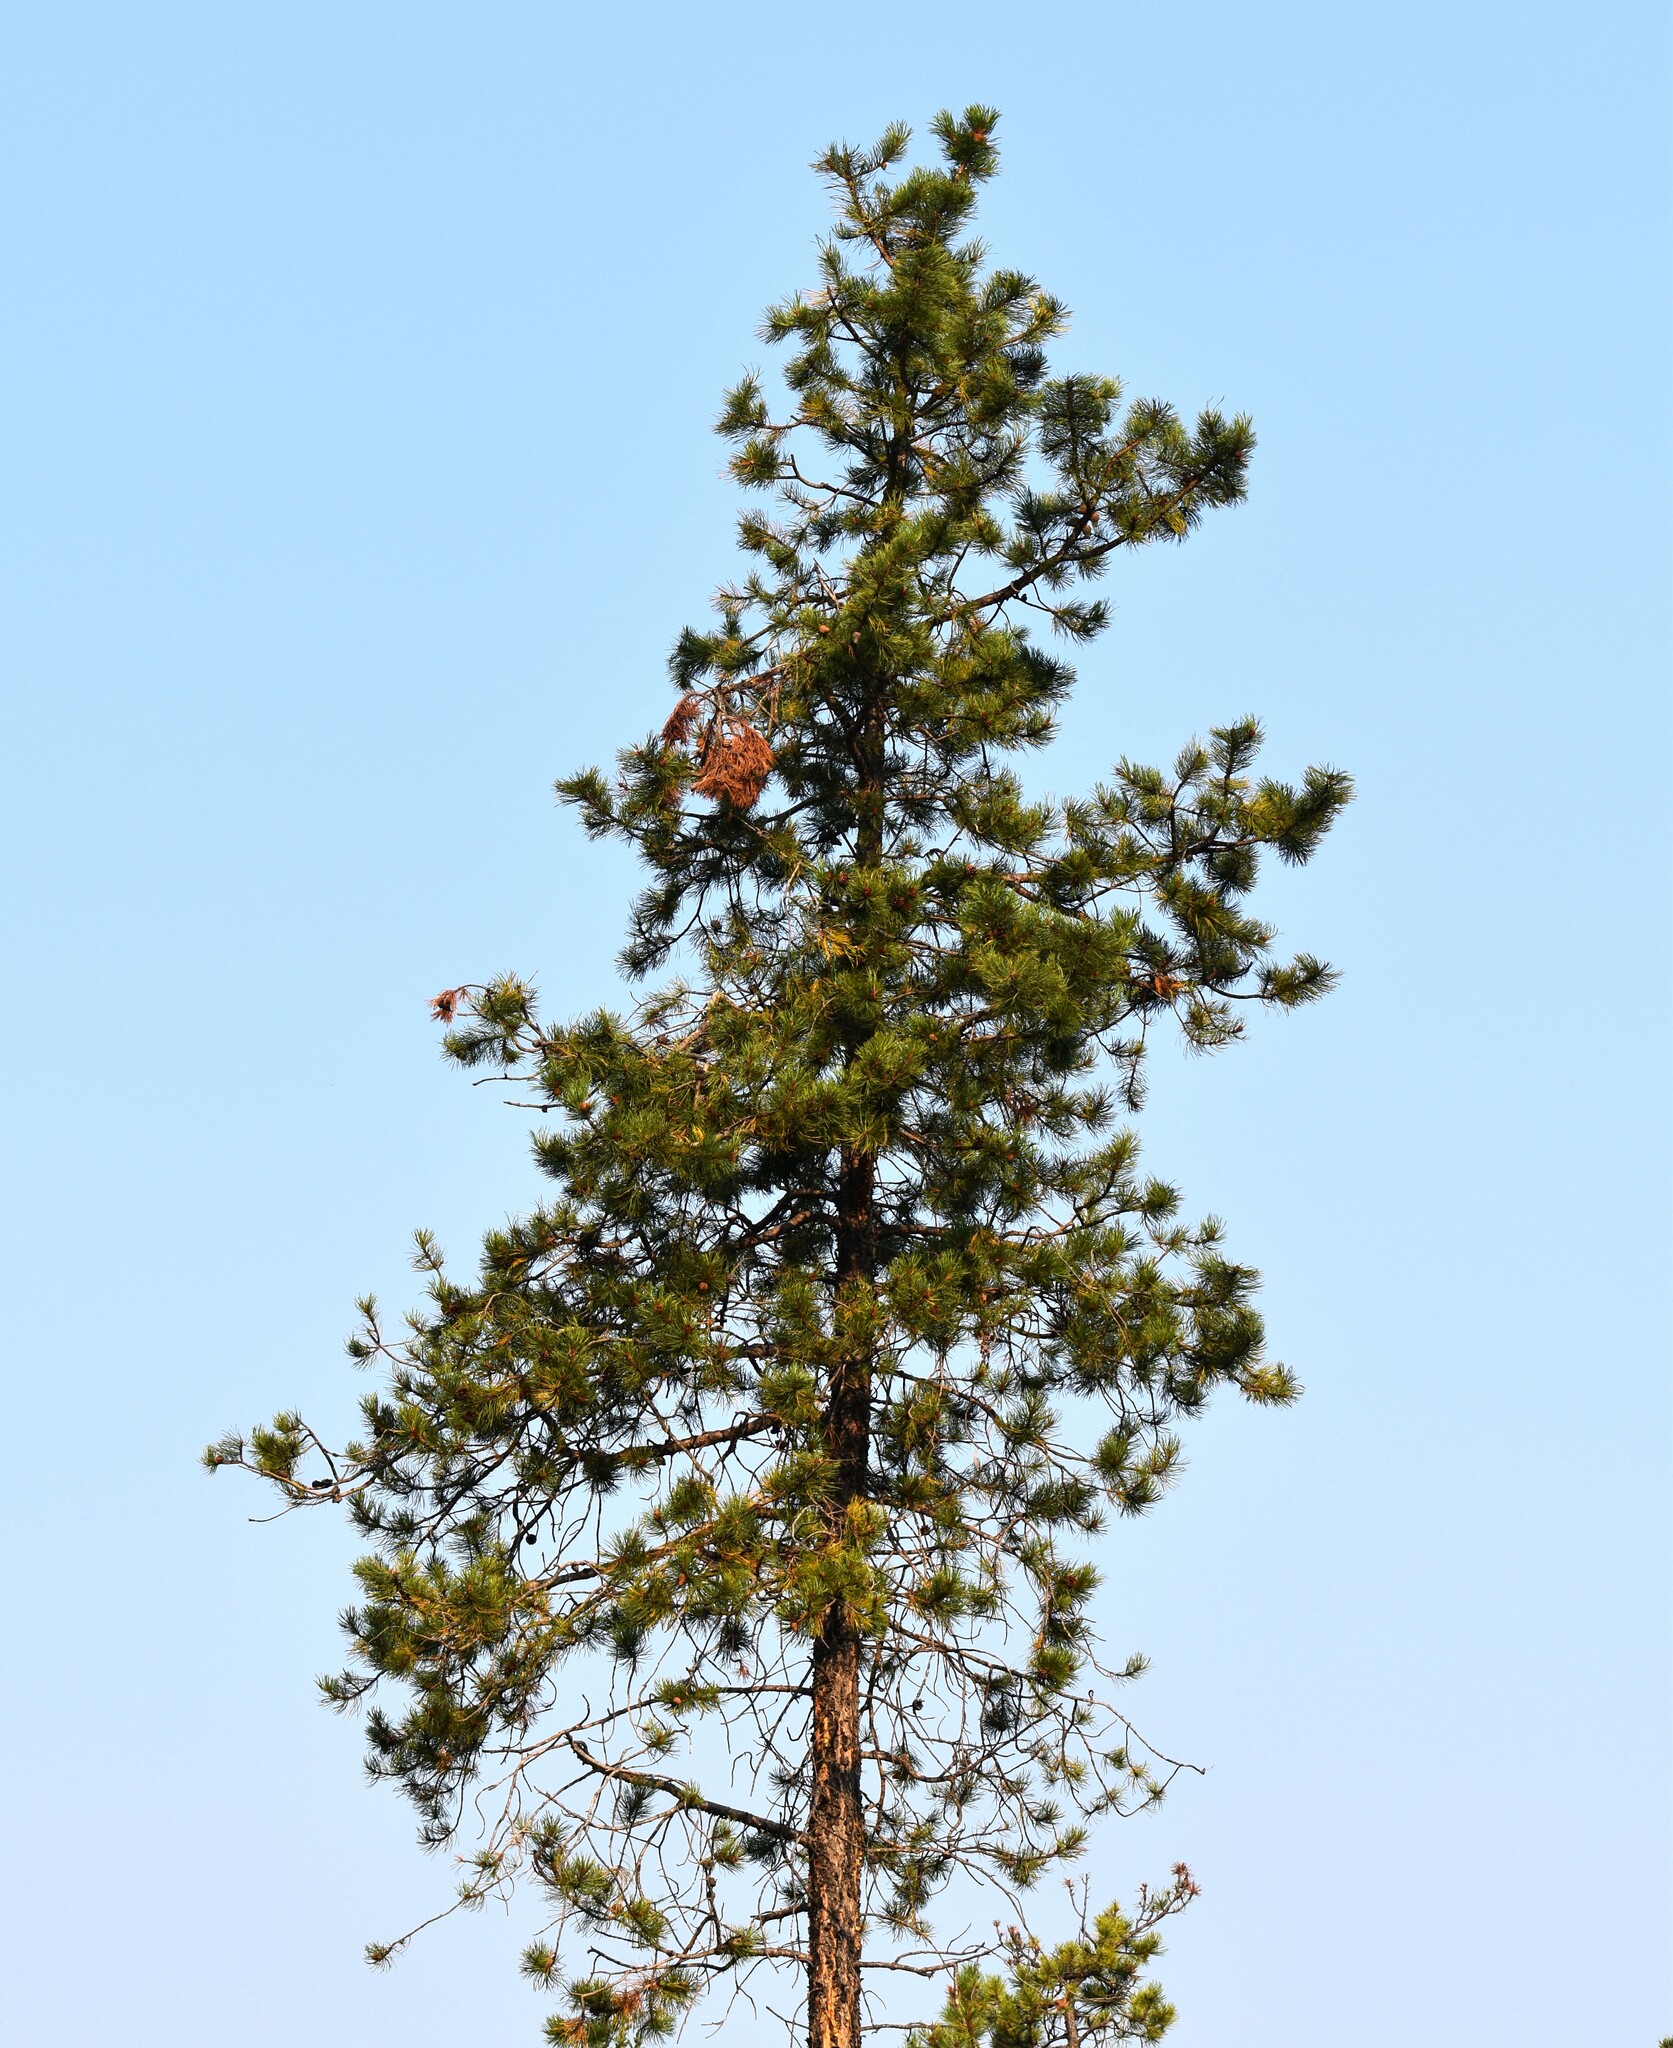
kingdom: Plantae
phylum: Tracheophyta
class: Pinopsida
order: Pinales
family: Pinaceae
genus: Pinus
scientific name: Pinus contorta
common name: Lodgepole pine
